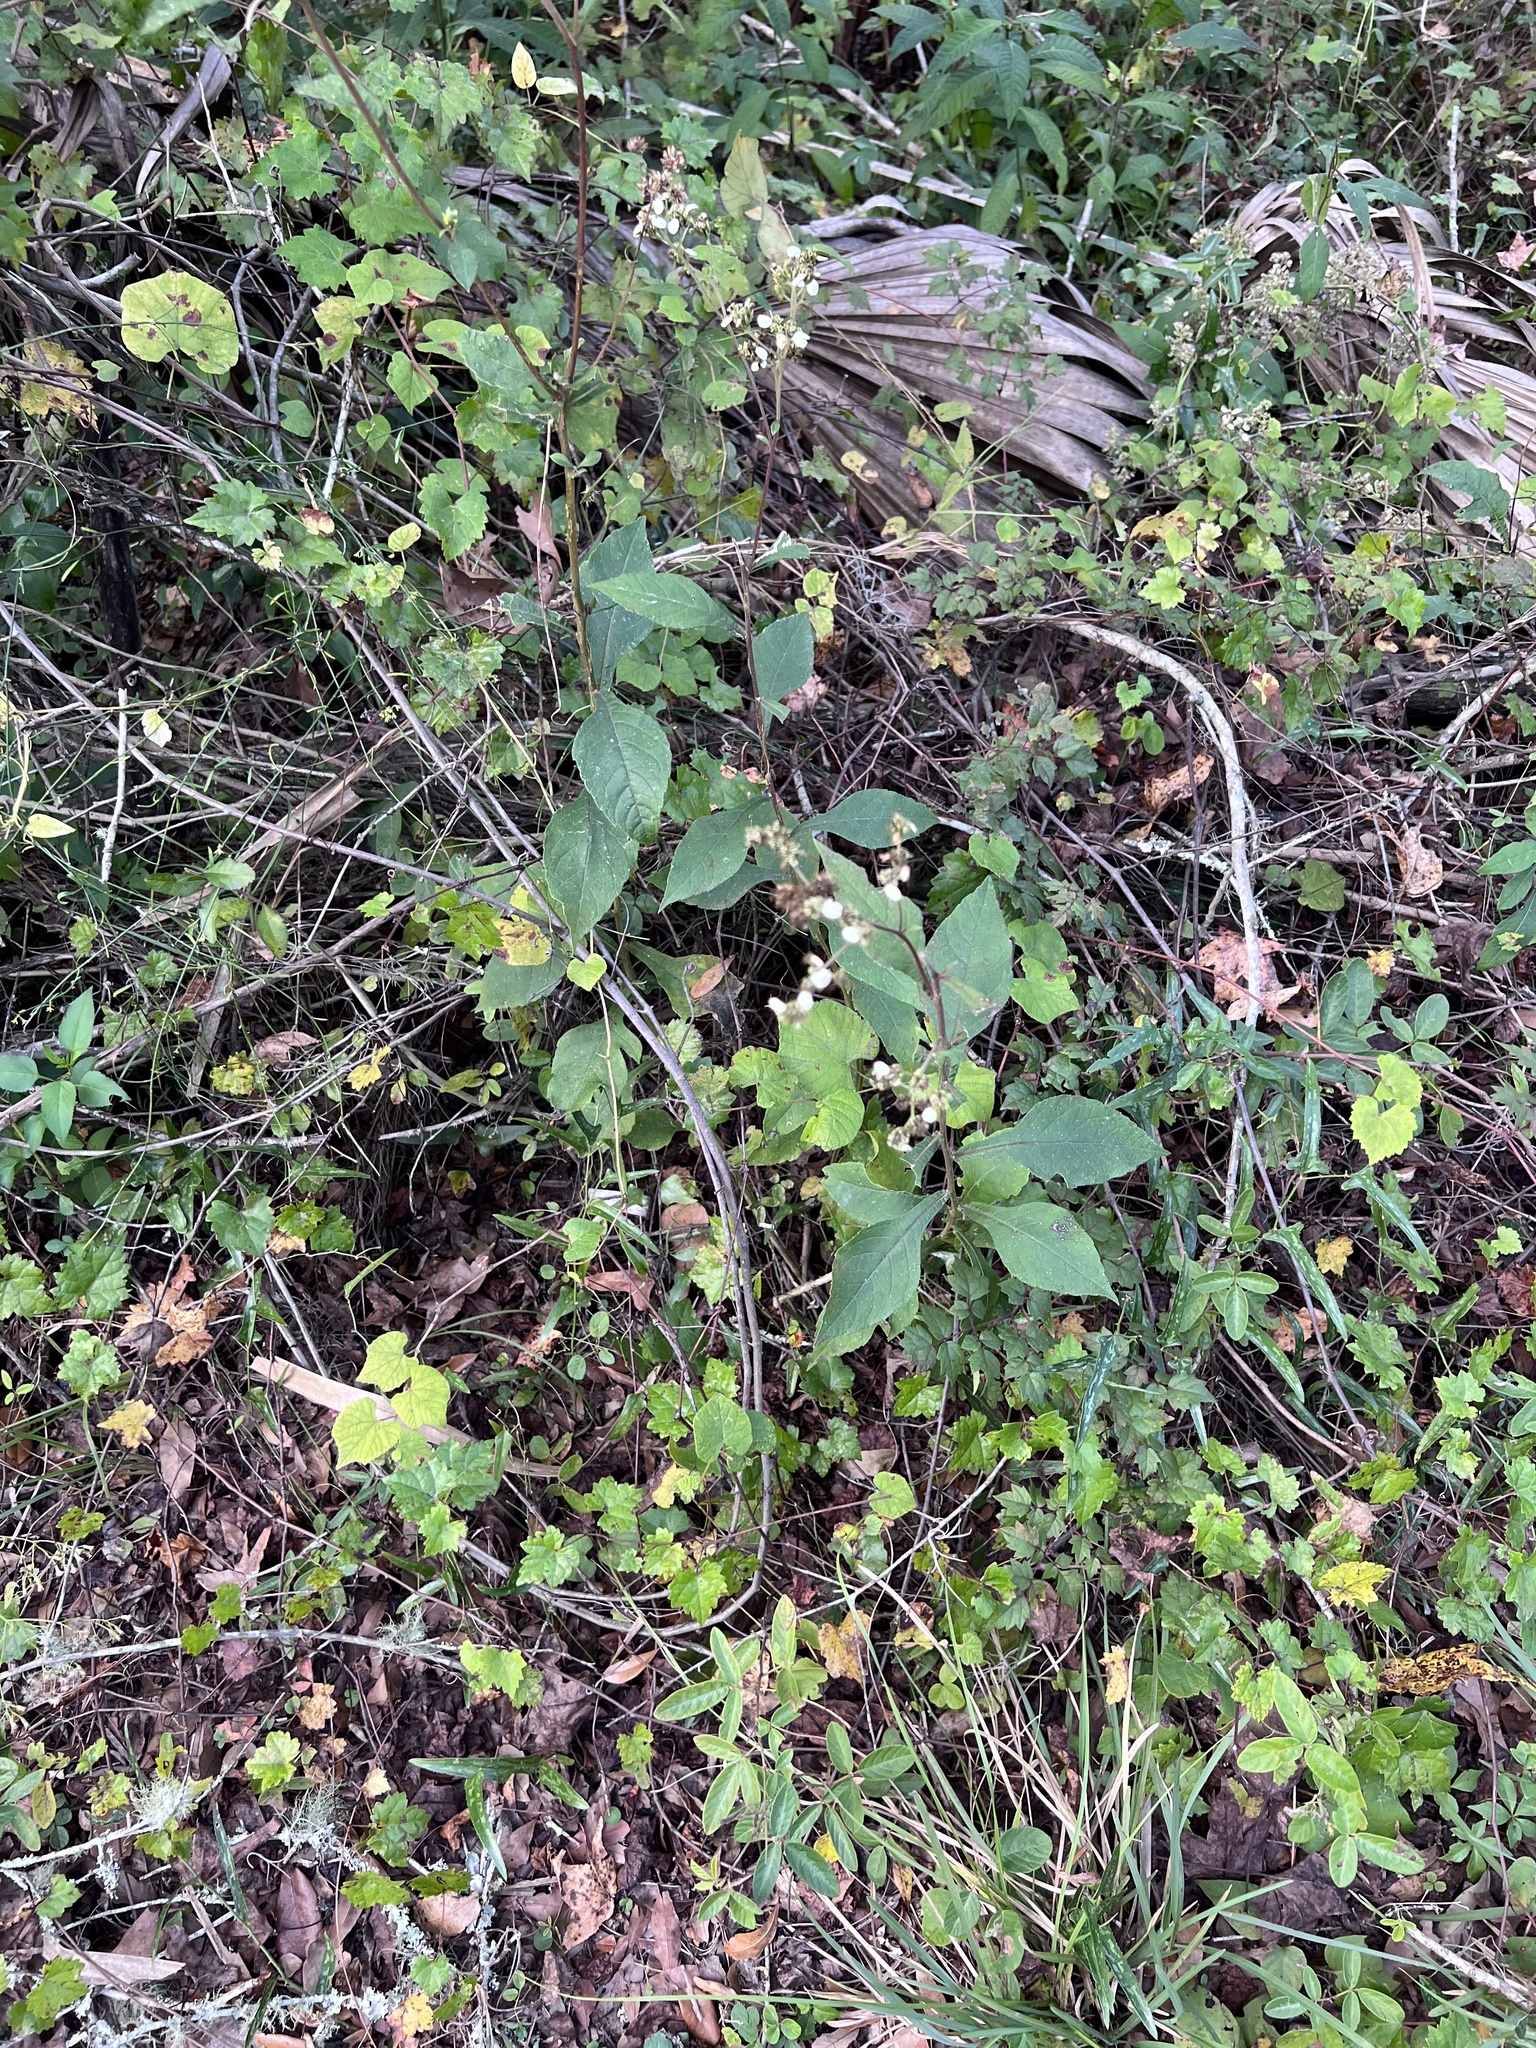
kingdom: Plantae
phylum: Tracheophyta
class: Magnoliopsida
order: Asterales
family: Asteraceae
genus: Verbesina
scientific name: Verbesina virginica
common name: Frostweed
